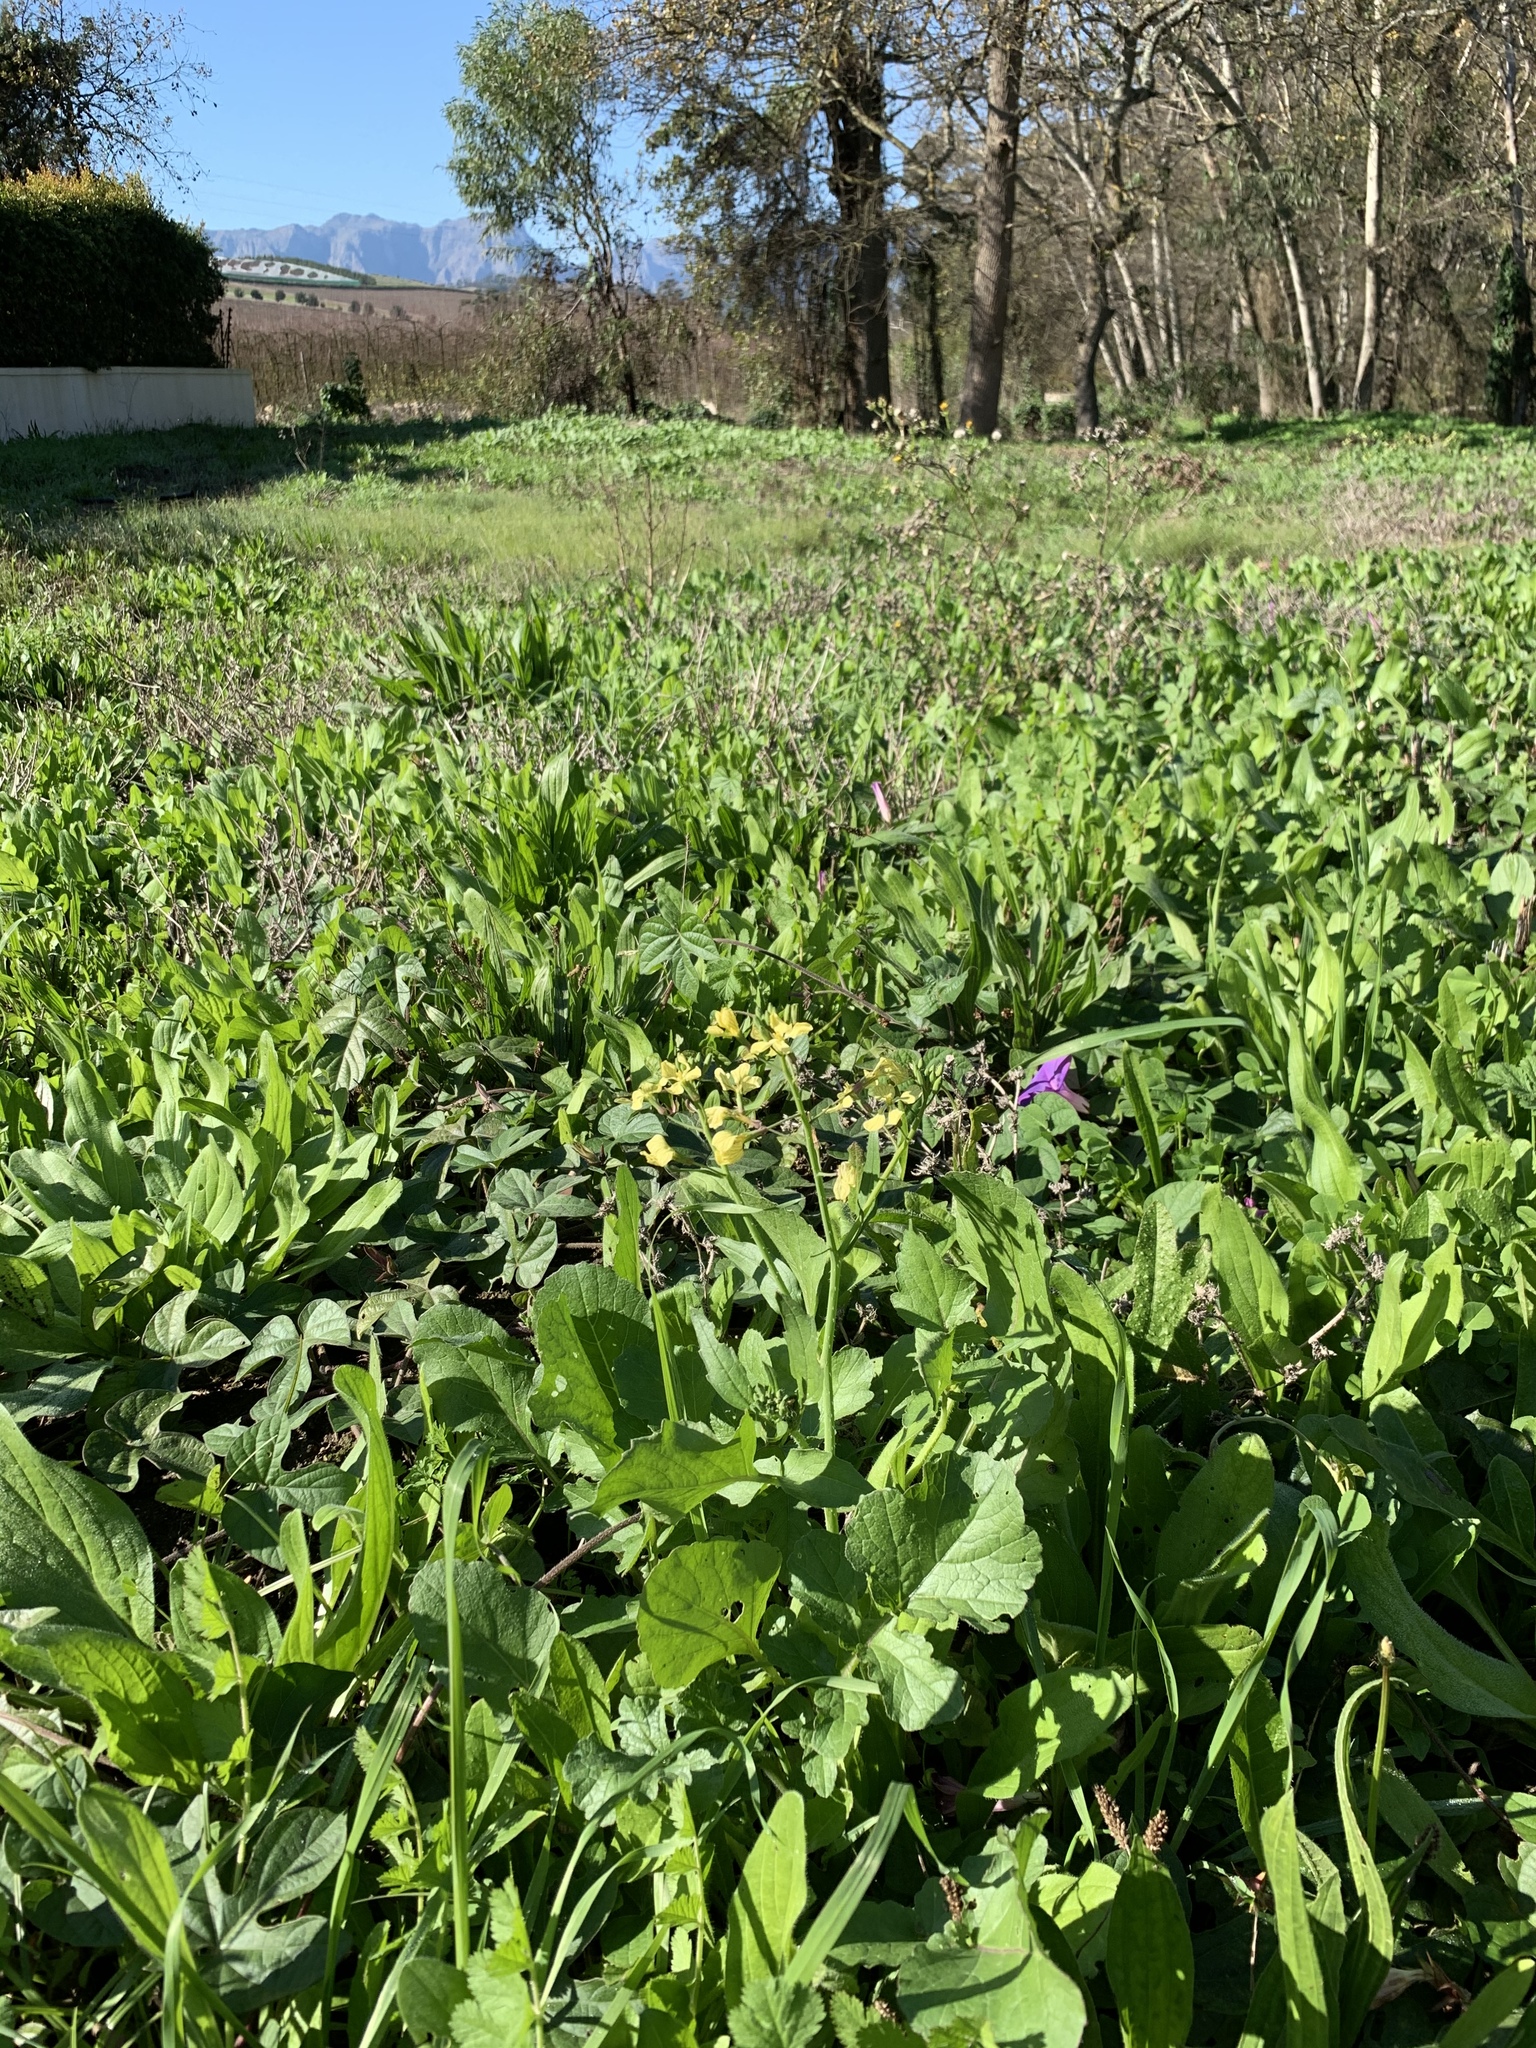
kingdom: Plantae
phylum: Tracheophyta
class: Magnoliopsida
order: Brassicales
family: Brassicaceae
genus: Raphanus
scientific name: Raphanus raphanistrum
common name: Wild radish
